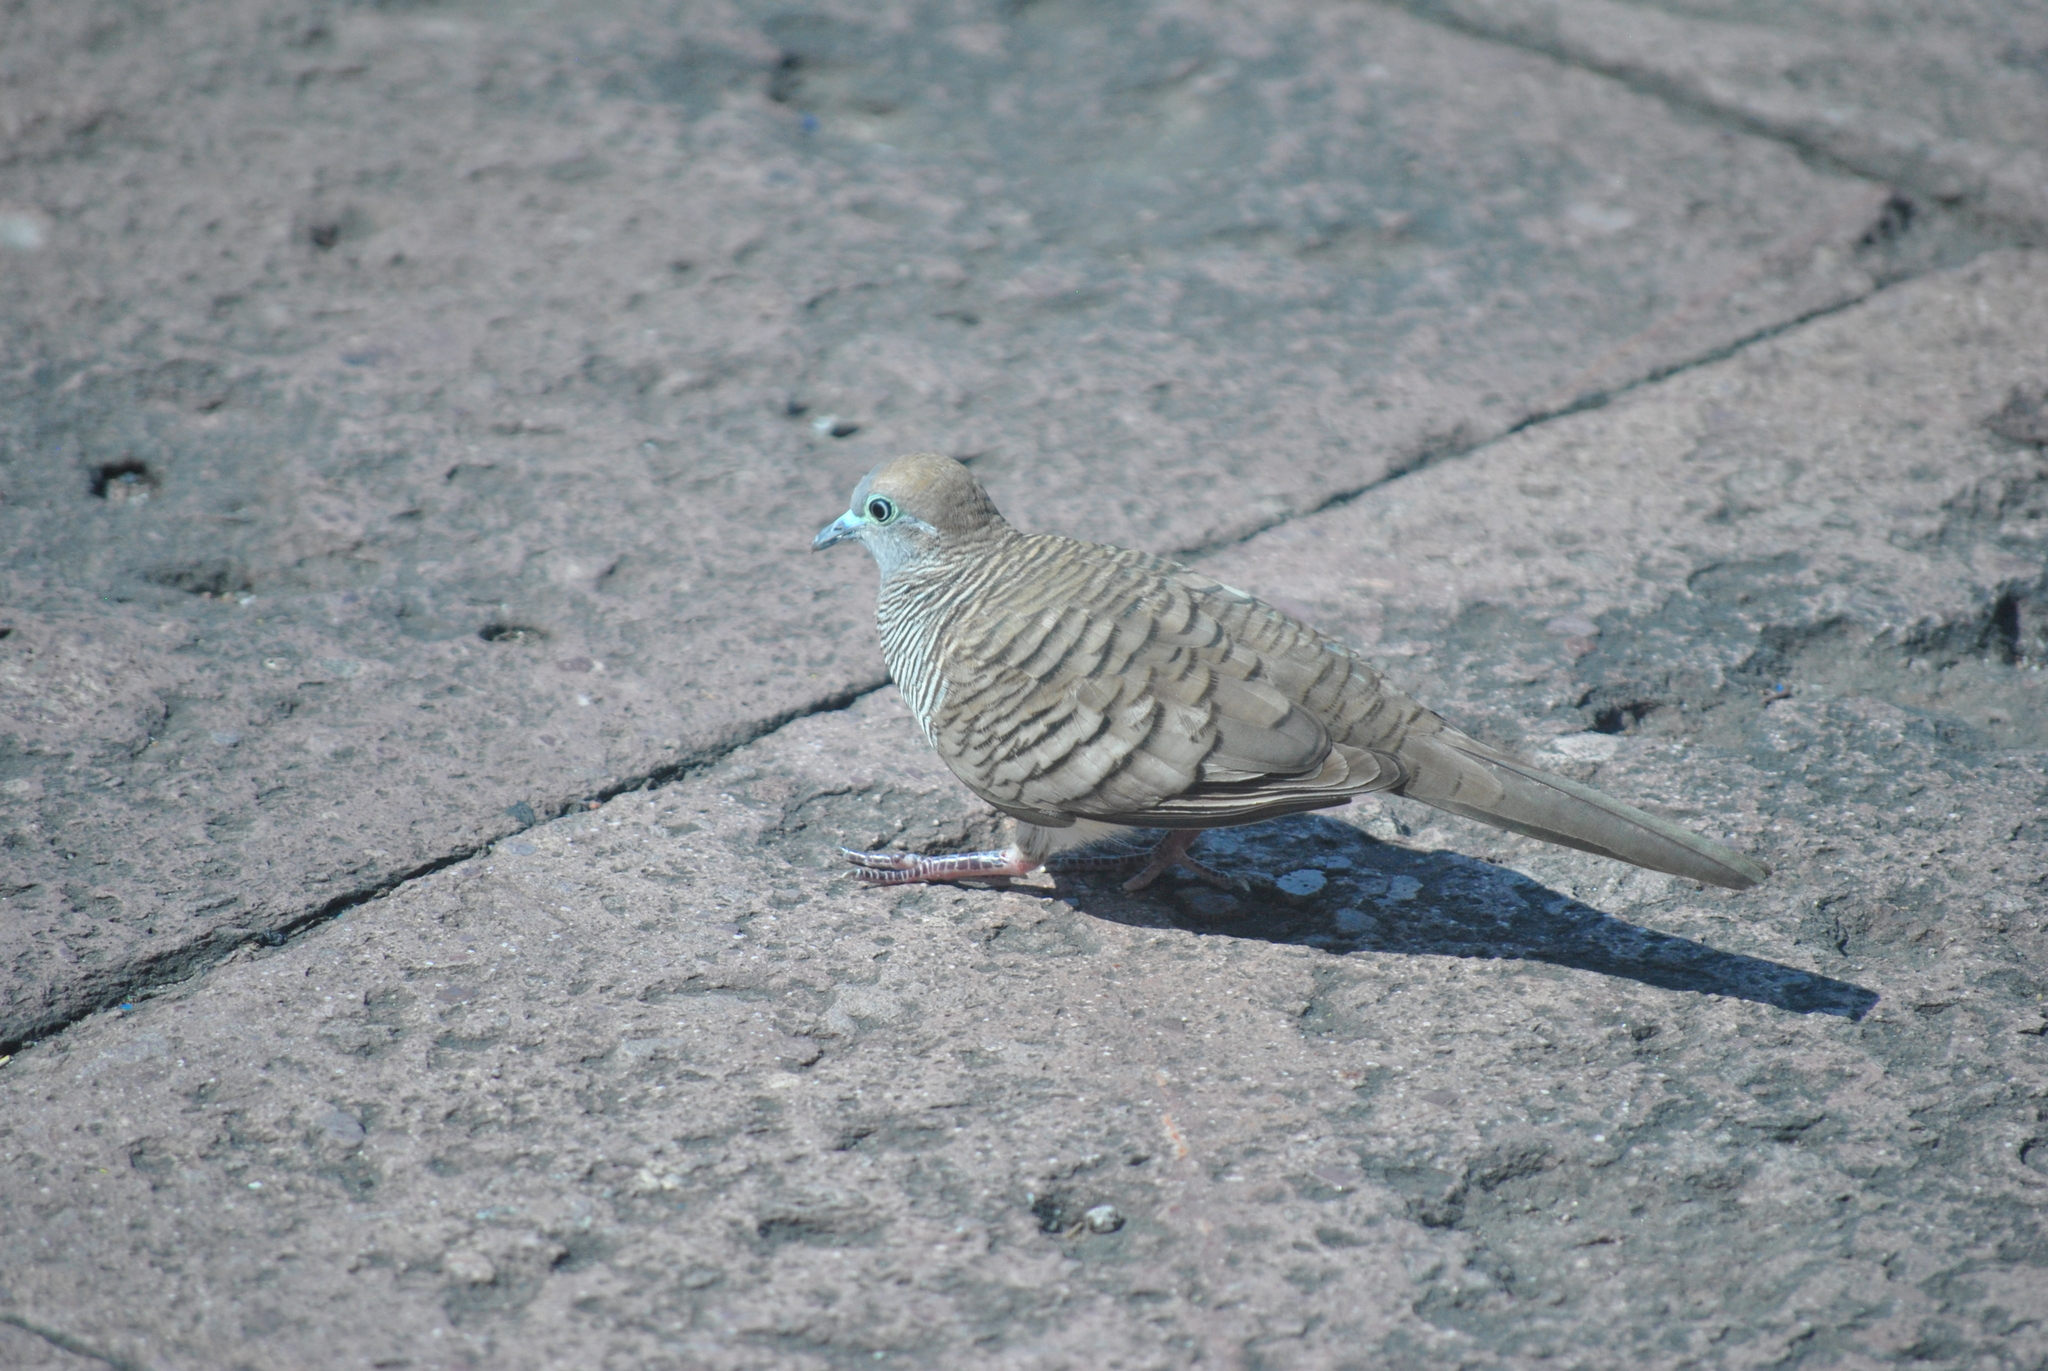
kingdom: Animalia
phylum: Chordata
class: Aves
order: Columbiformes
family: Columbidae
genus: Geopelia
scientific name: Geopelia striata
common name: Zebra dove
